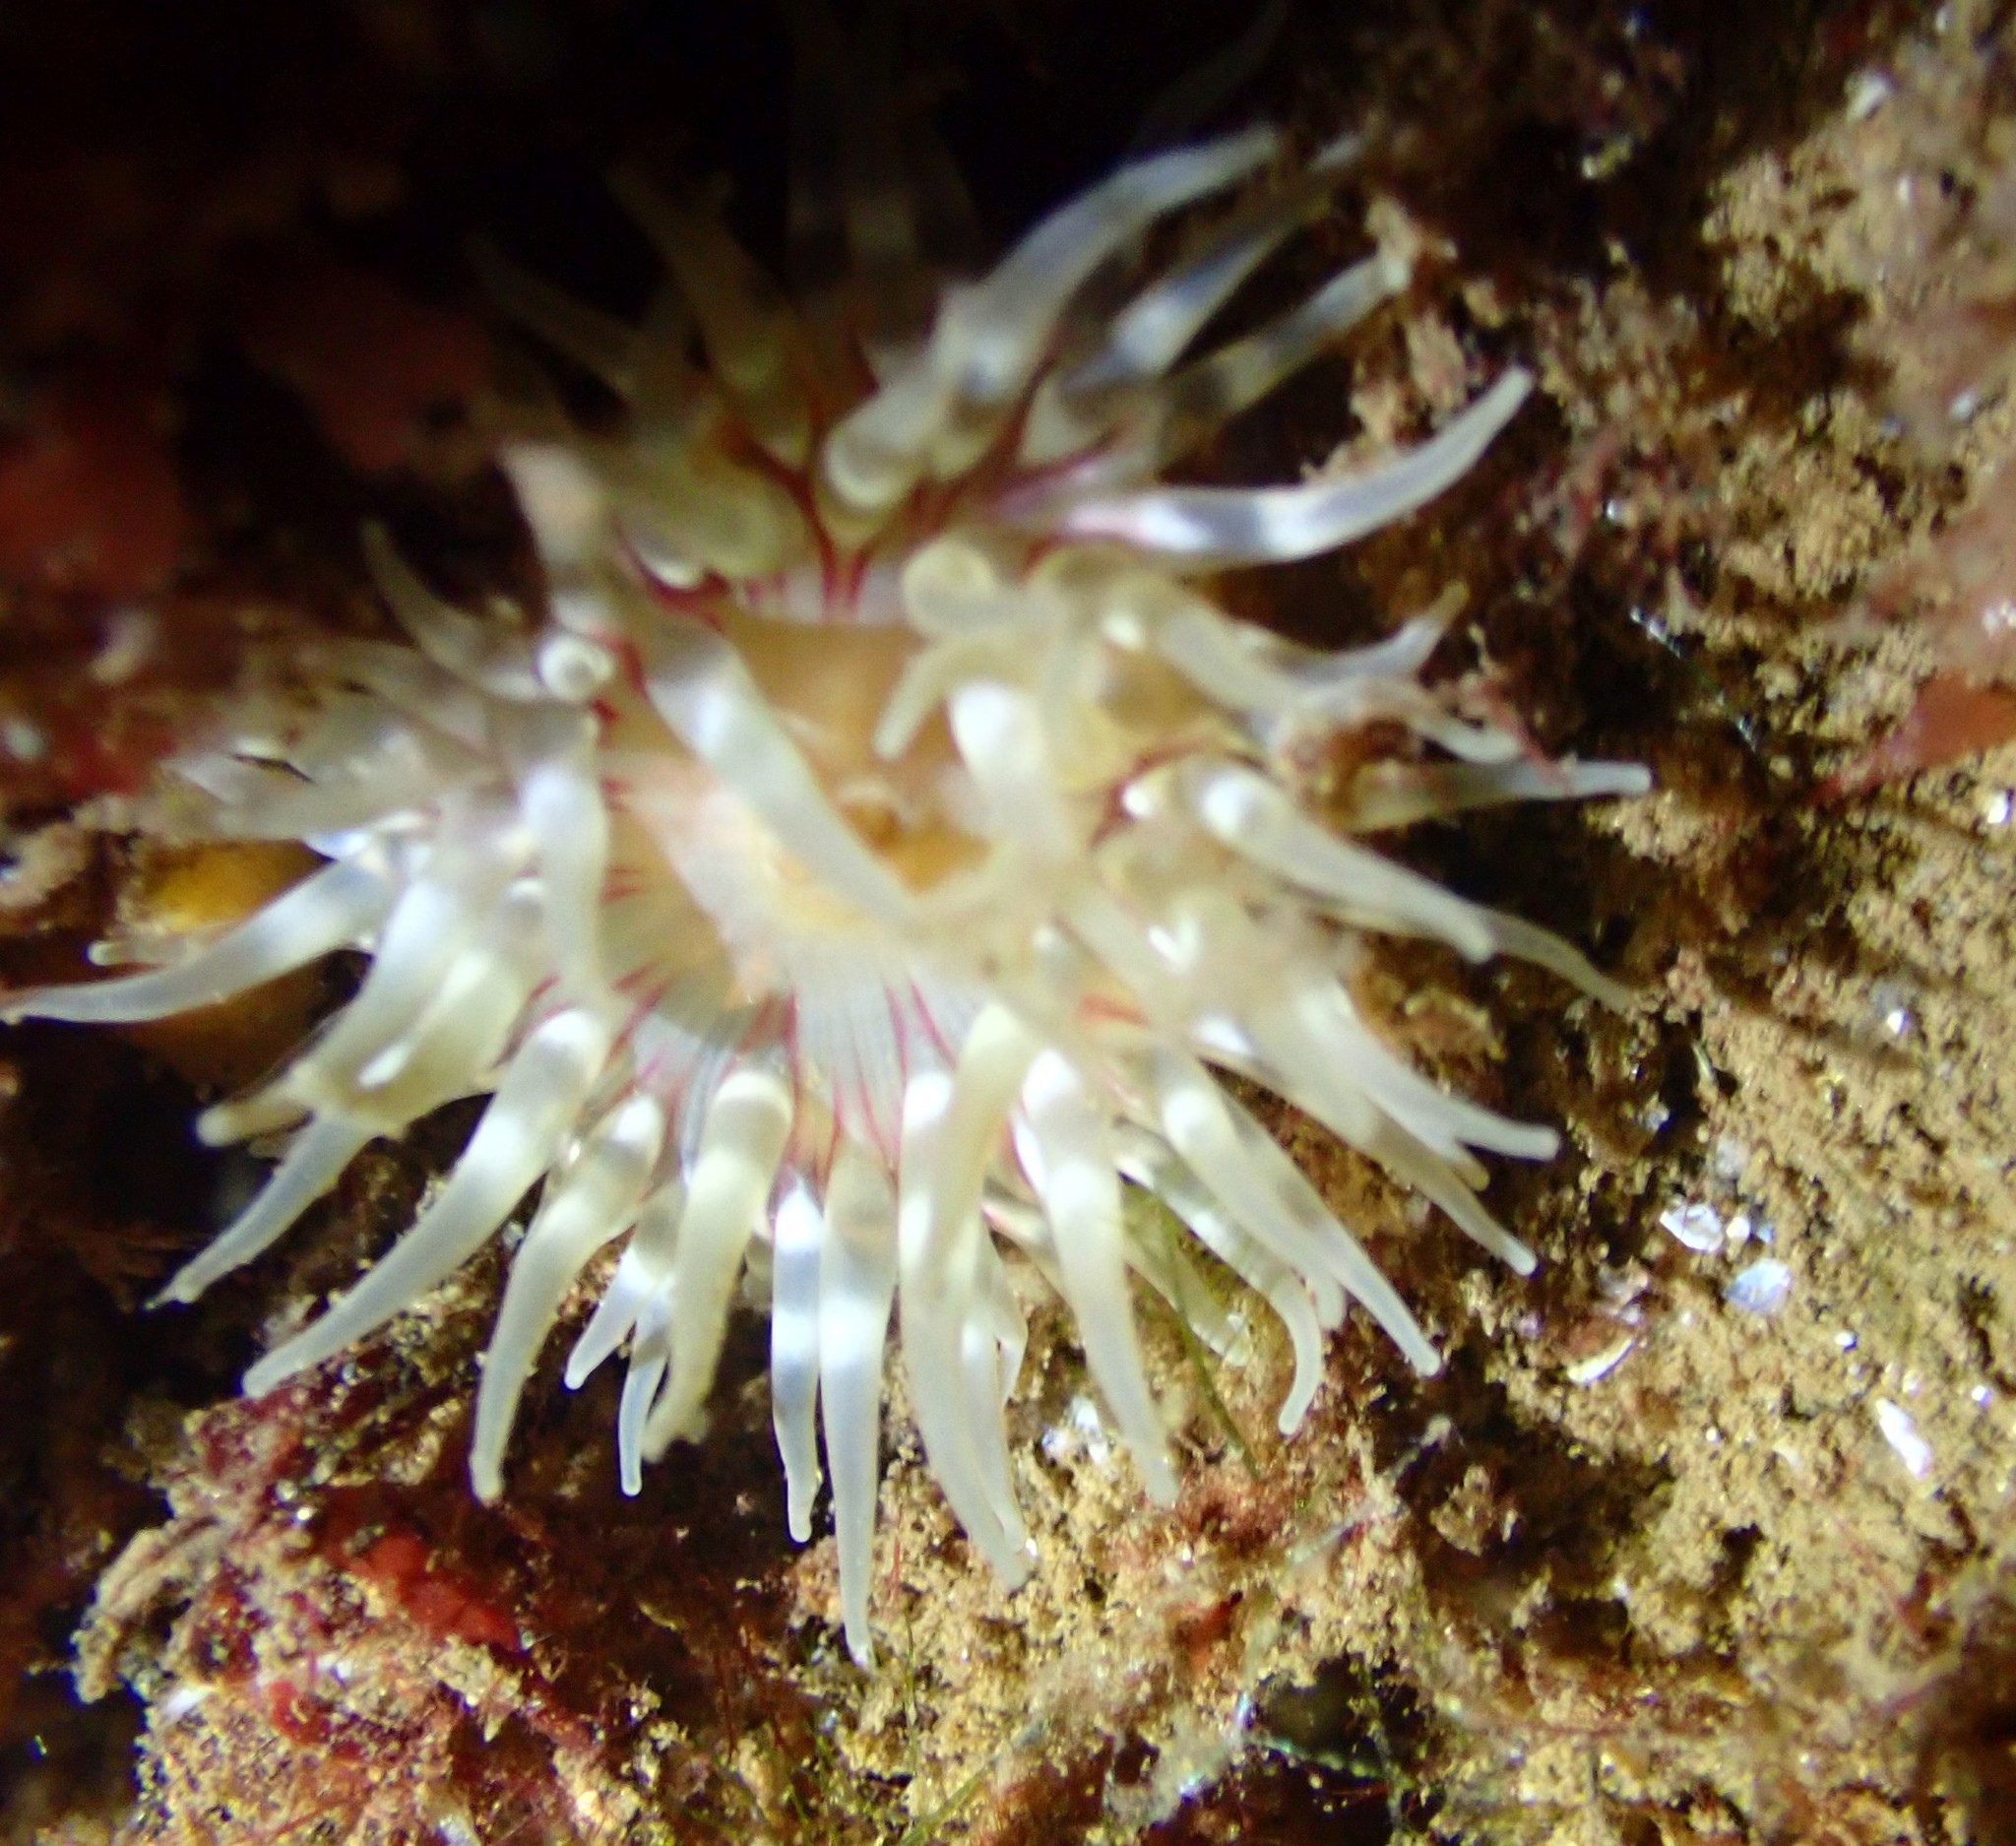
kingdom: Animalia
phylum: Cnidaria
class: Anthozoa
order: Actiniaria
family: Actiniidae
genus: Urticina
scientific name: Urticina felina
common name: Dahlia anemone
